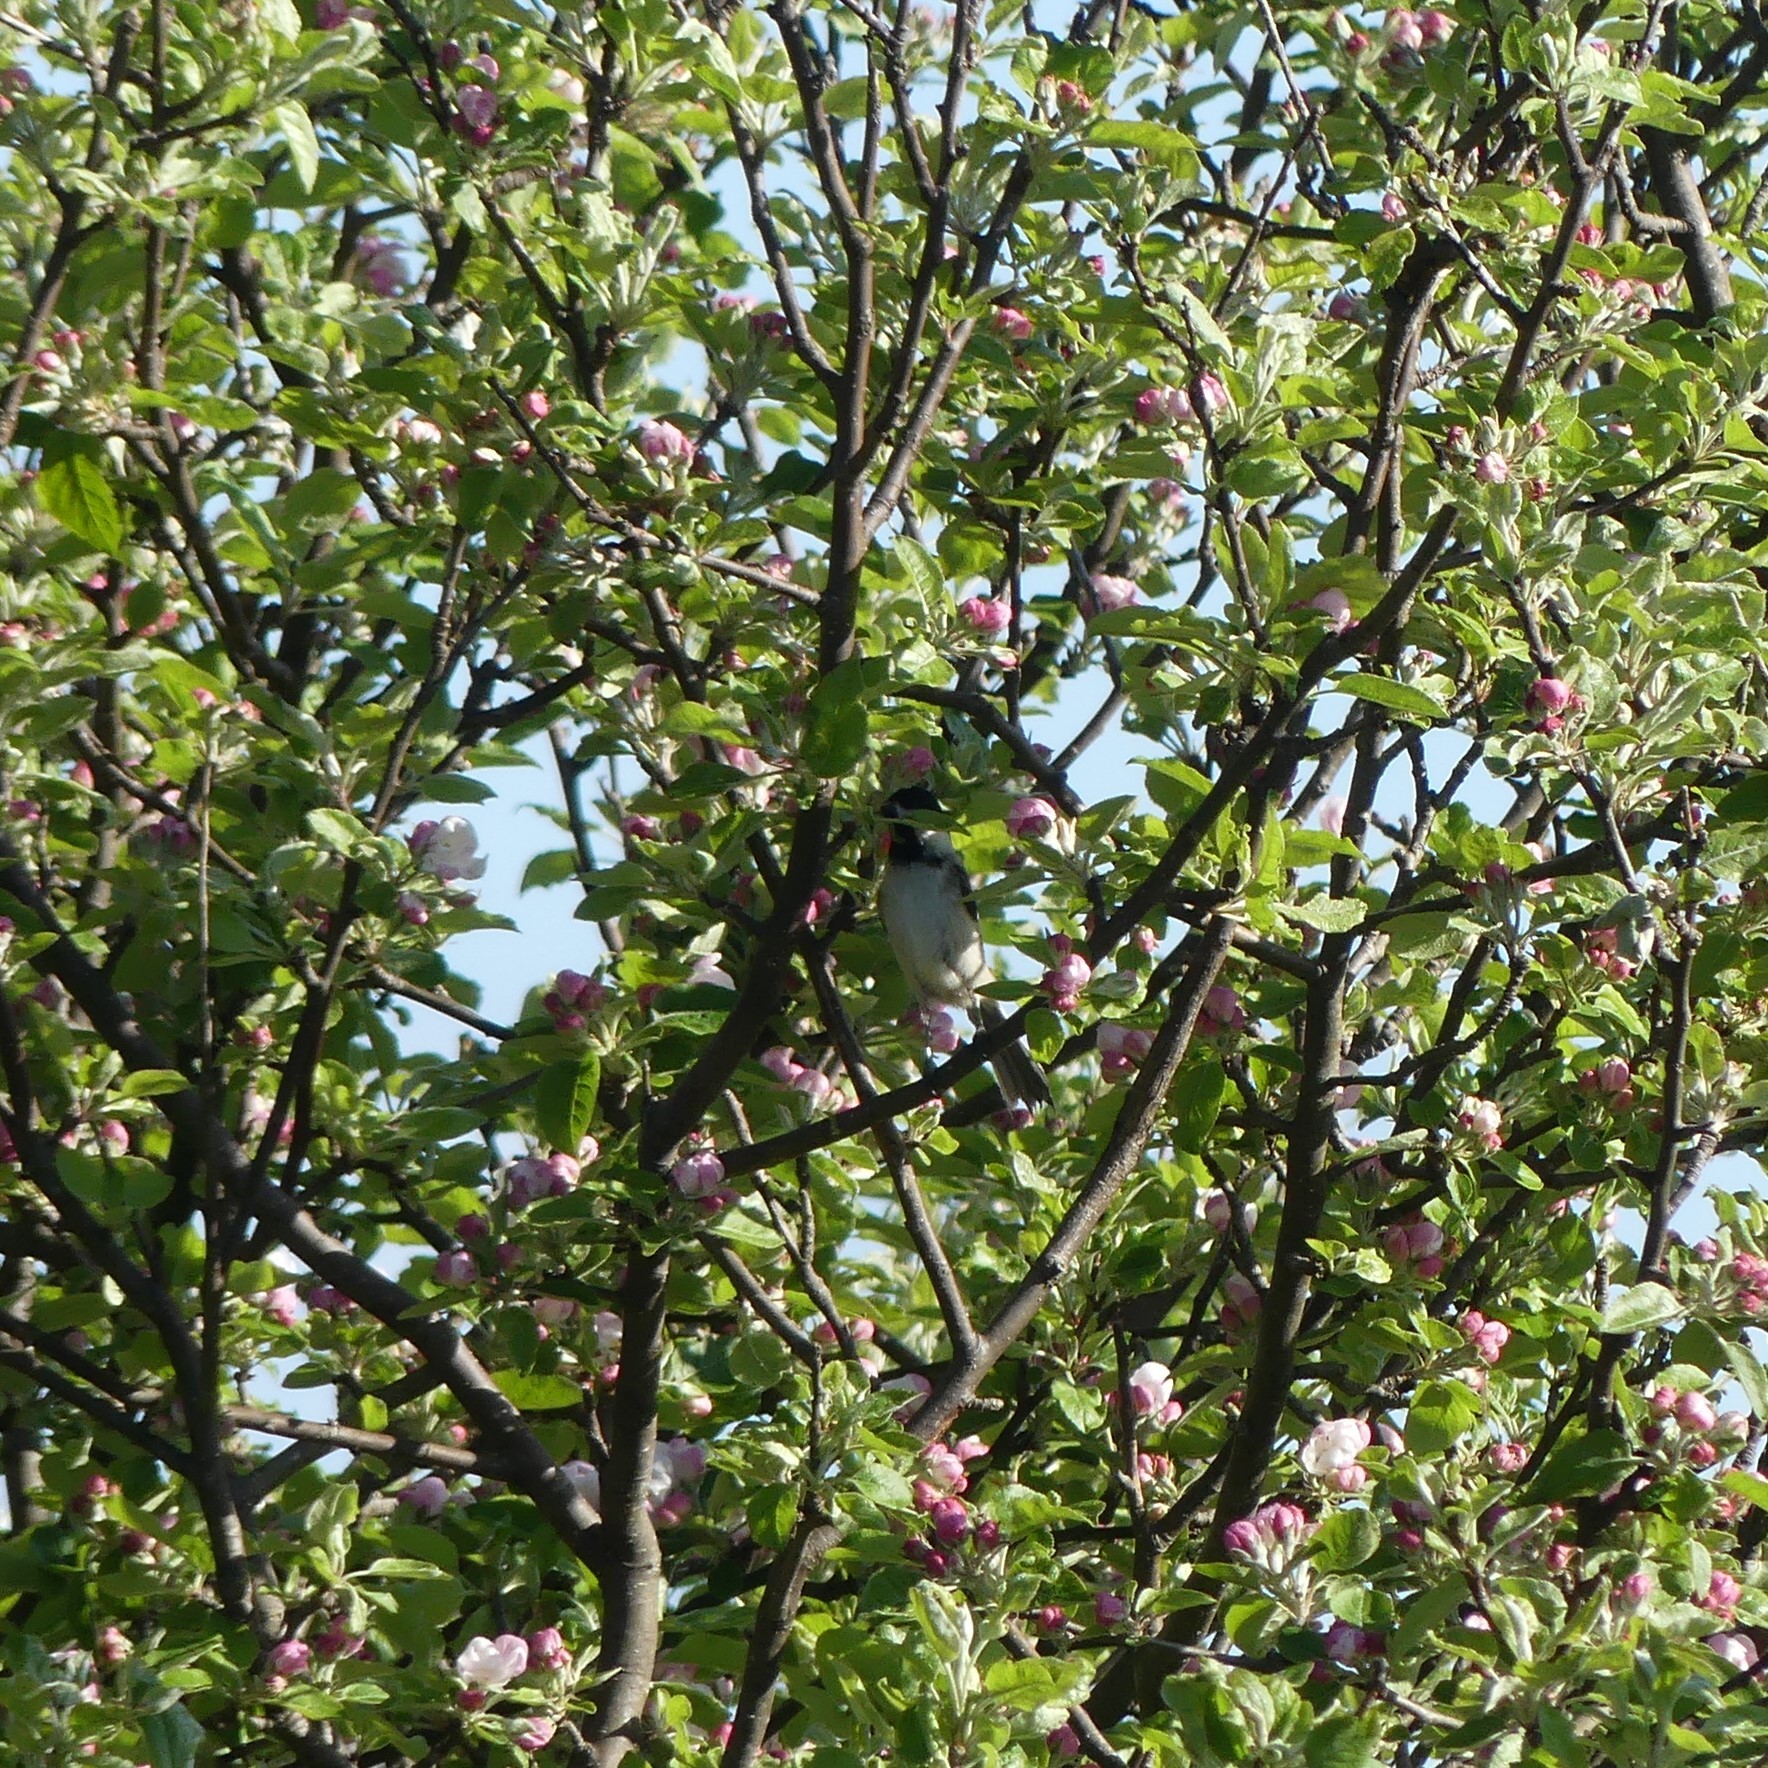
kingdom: Animalia
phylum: Chordata
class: Aves
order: Passeriformes
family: Paridae
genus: Poecile
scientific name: Poecile atricapillus
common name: Black-capped chickadee
